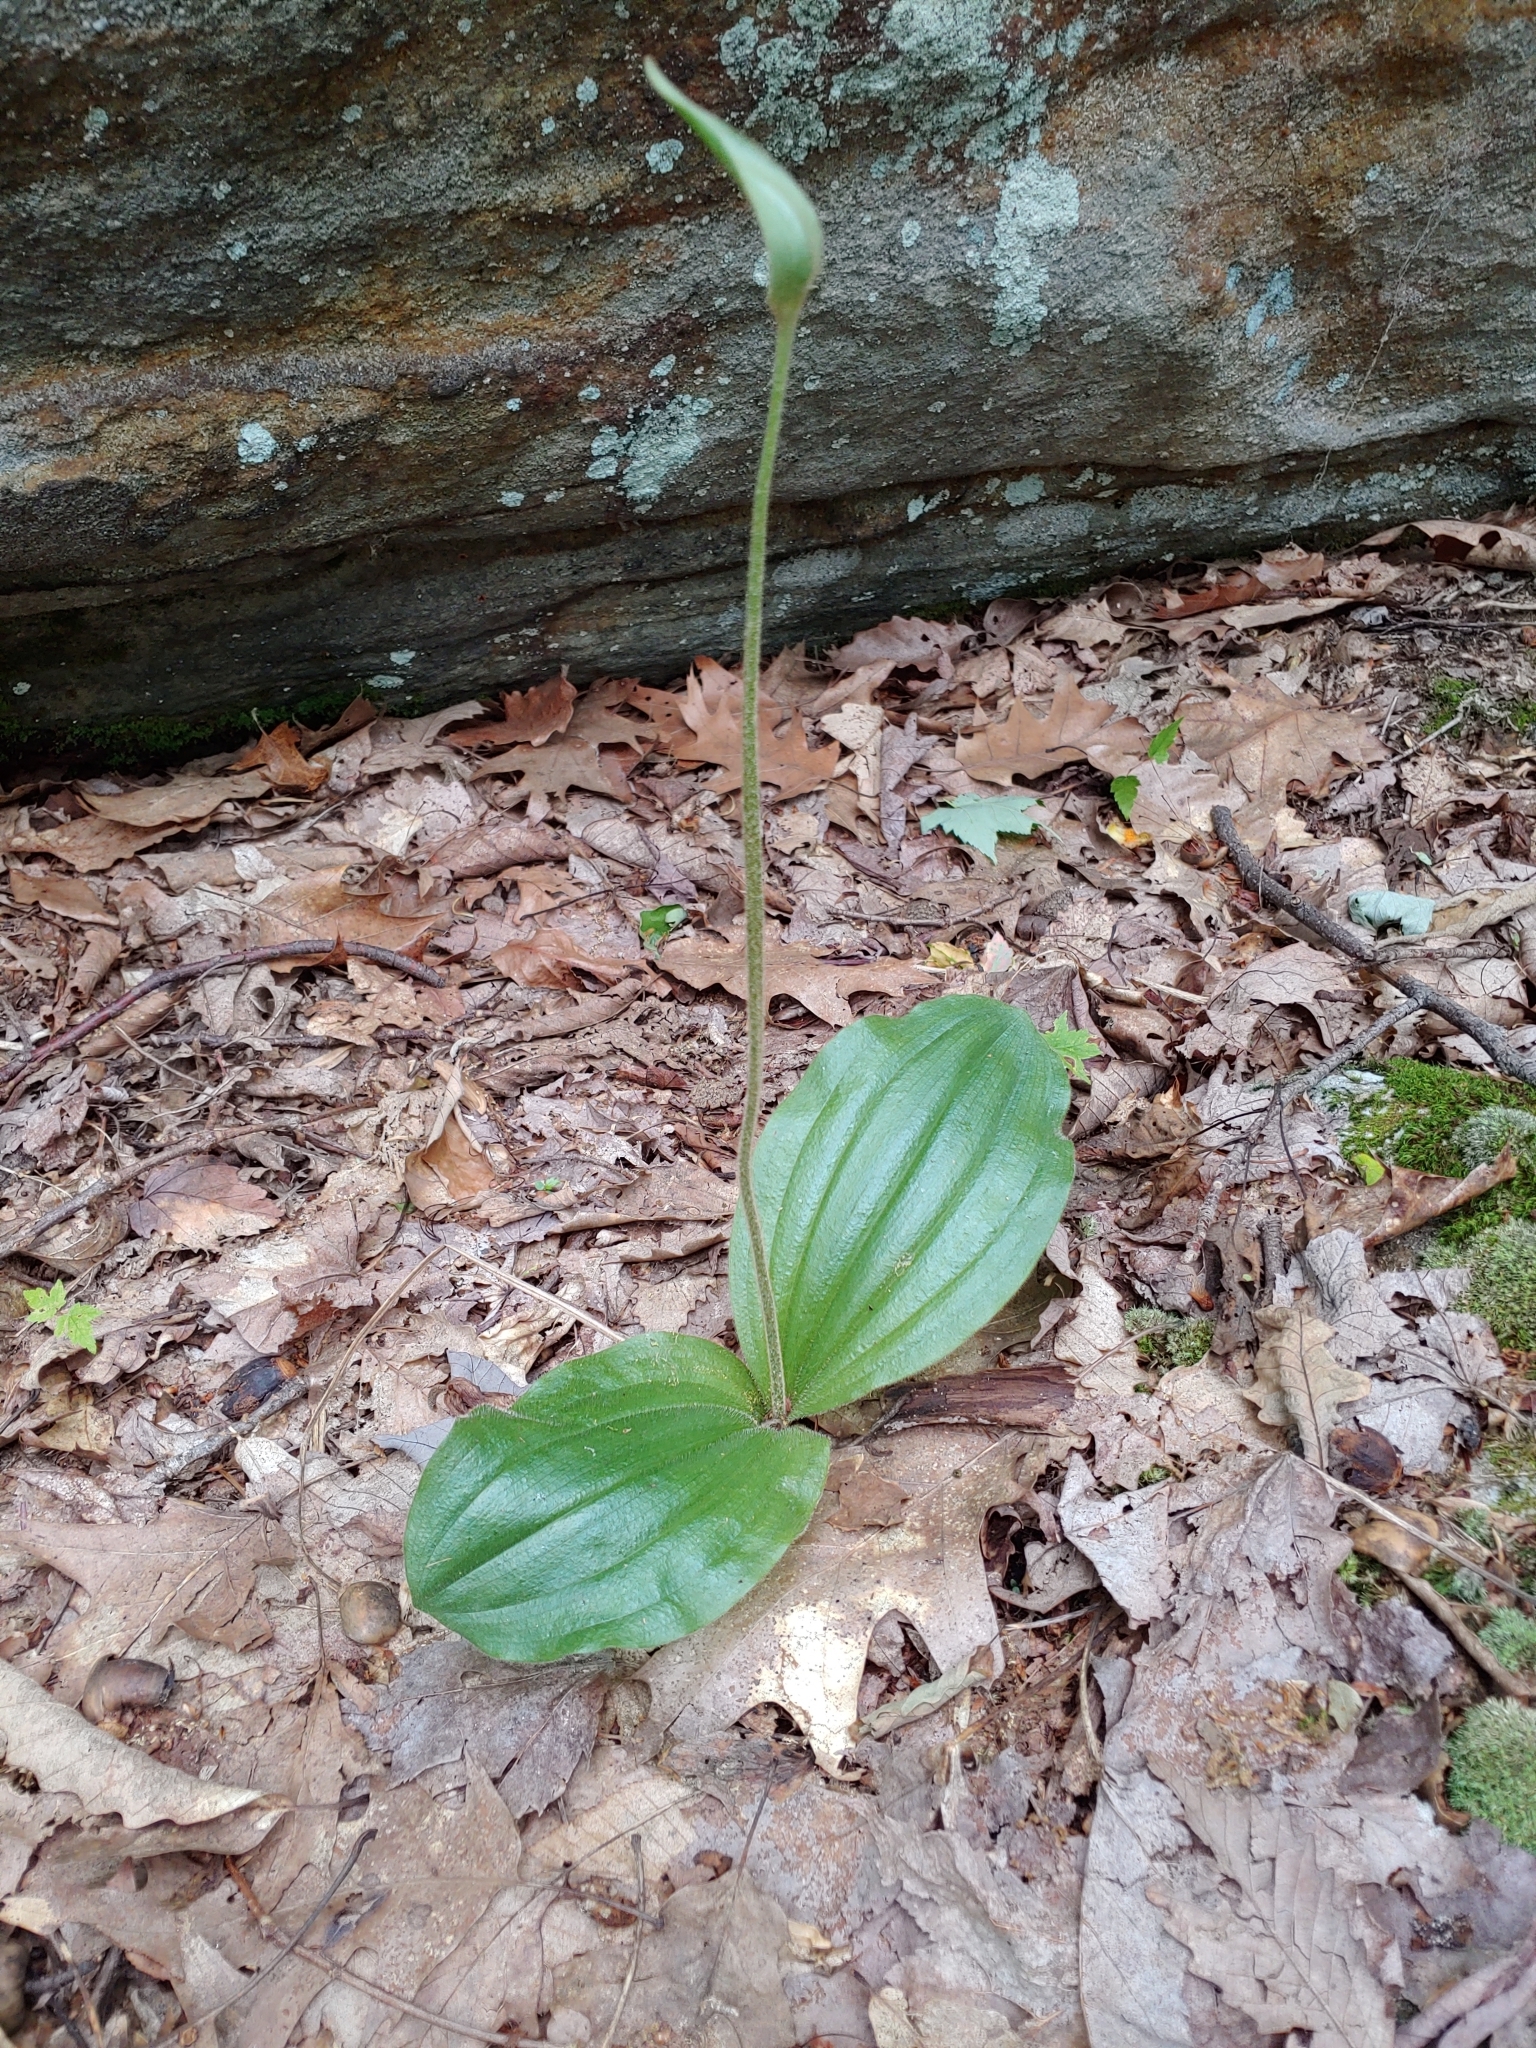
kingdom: Plantae
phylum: Tracheophyta
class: Liliopsida
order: Asparagales
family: Orchidaceae
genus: Cypripedium
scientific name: Cypripedium acaule
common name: Pink lady's-slipper
